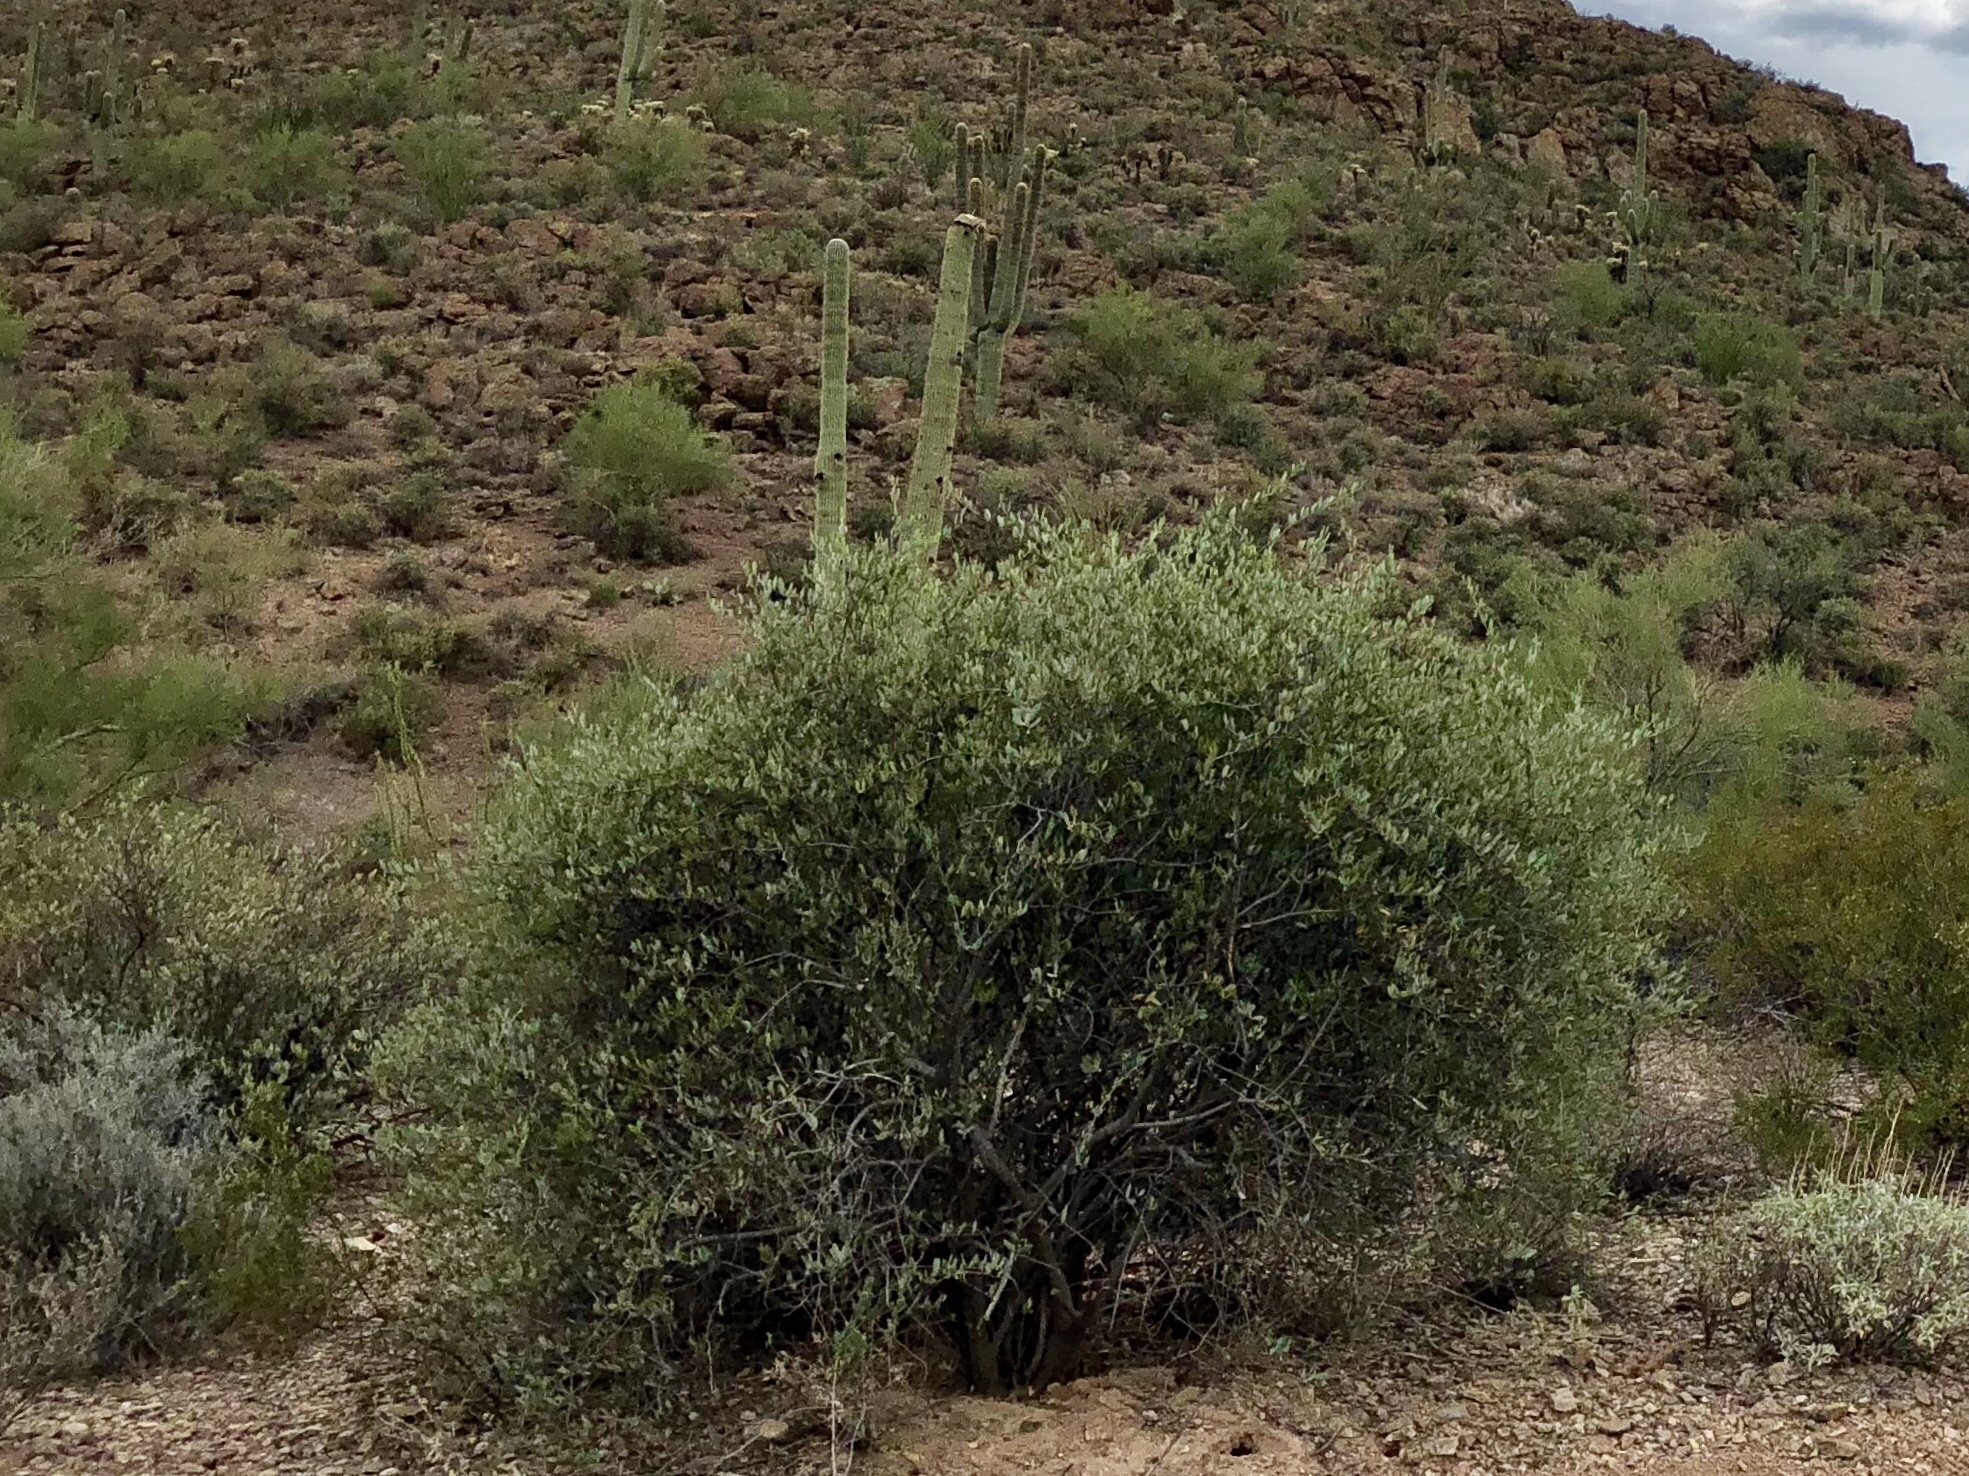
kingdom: Plantae
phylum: Tracheophyta
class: Magnoliopsida
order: Caryophyllales
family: Simmondsiaceae
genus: Simmondsia
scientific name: Simmondsia chinensis
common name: Jojoba
